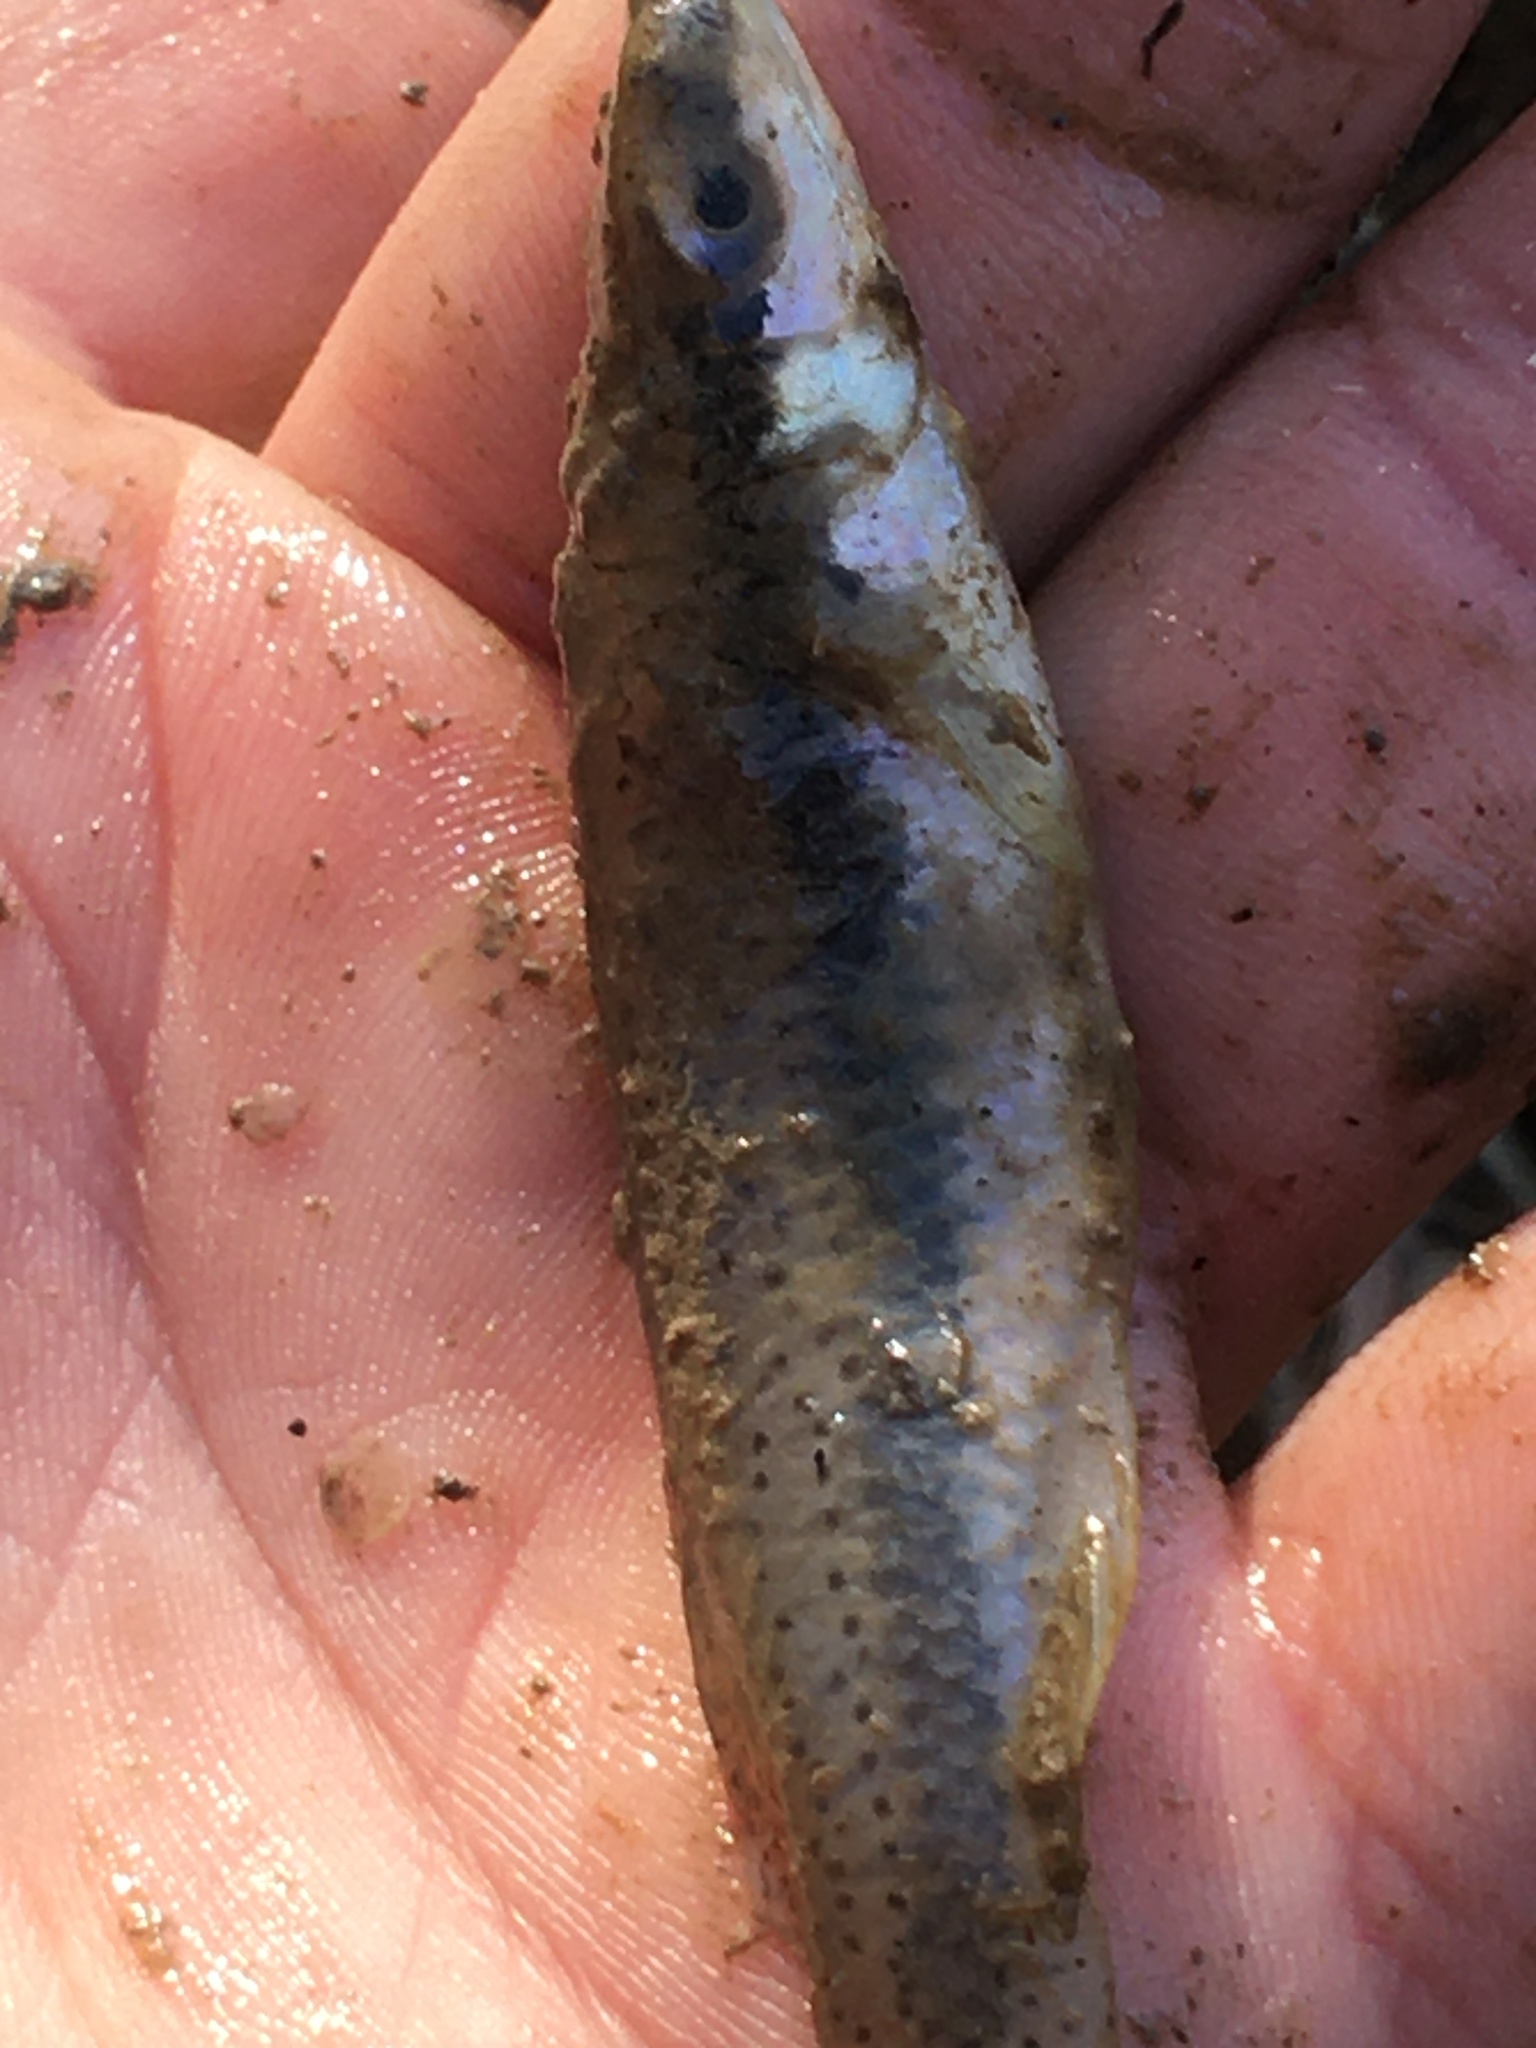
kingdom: Animalia
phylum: Chordata
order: Cyprinodontiformes
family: Fundulidae
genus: Fundulus
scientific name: Fundulus olivaceus
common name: Blackspotted topminnow
